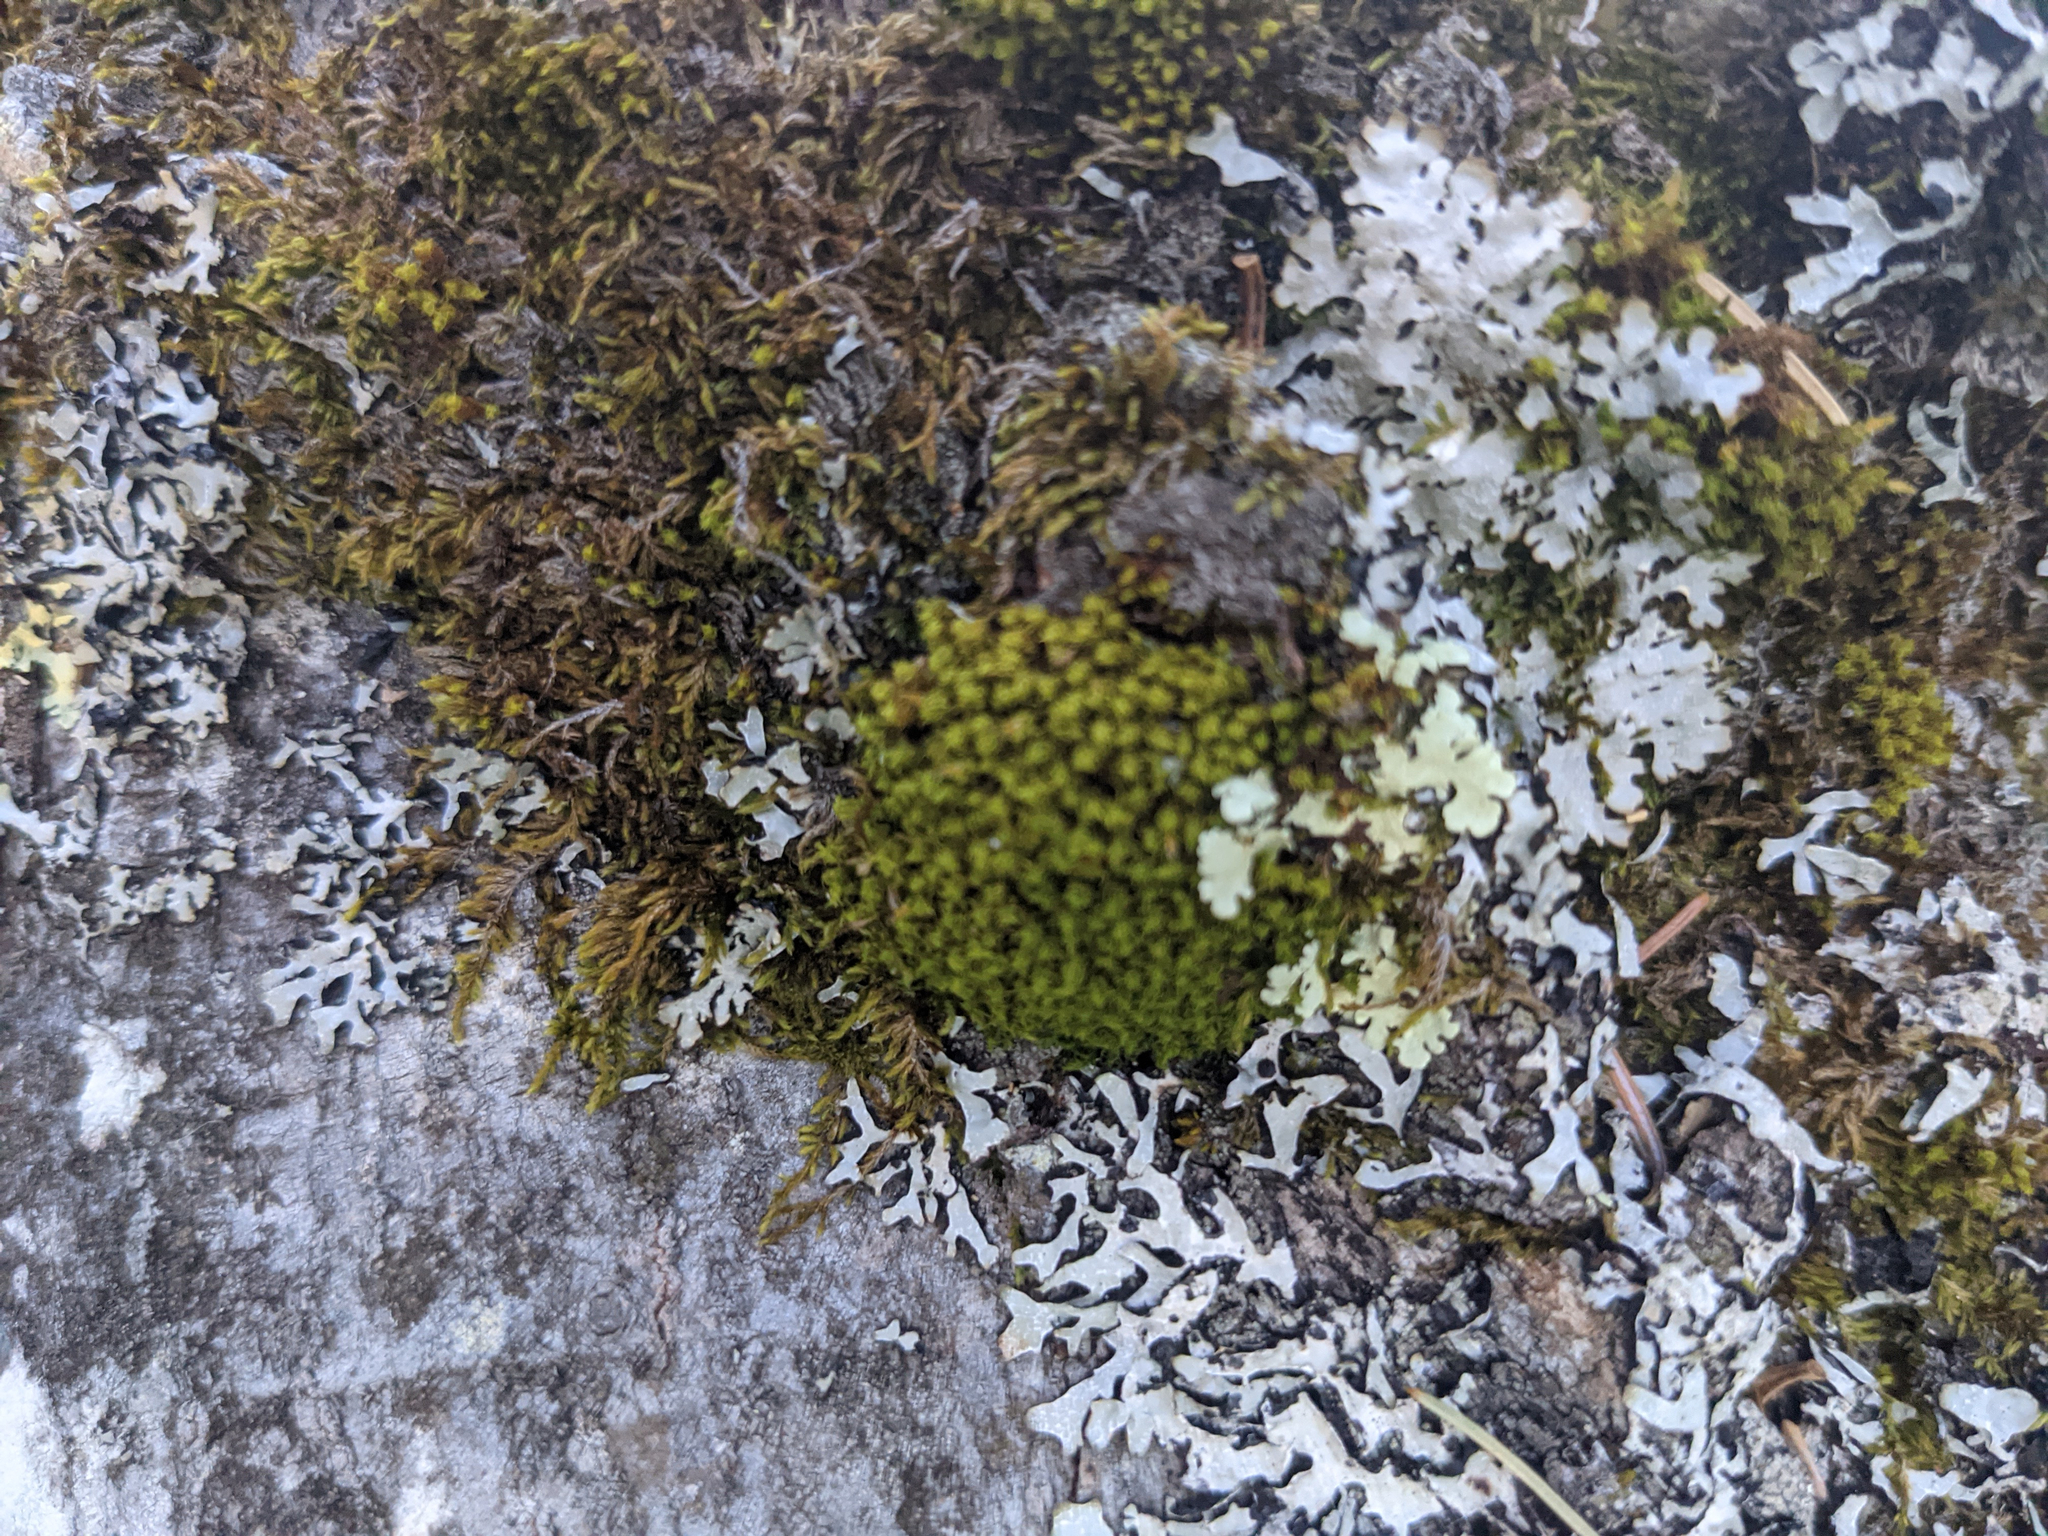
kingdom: Plantae
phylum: Bryophyta
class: Bryopsida
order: Orthotrichales
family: Orthotrichaceae
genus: Ulota
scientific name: Ulota crispa
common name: Crisped pincushion moss
